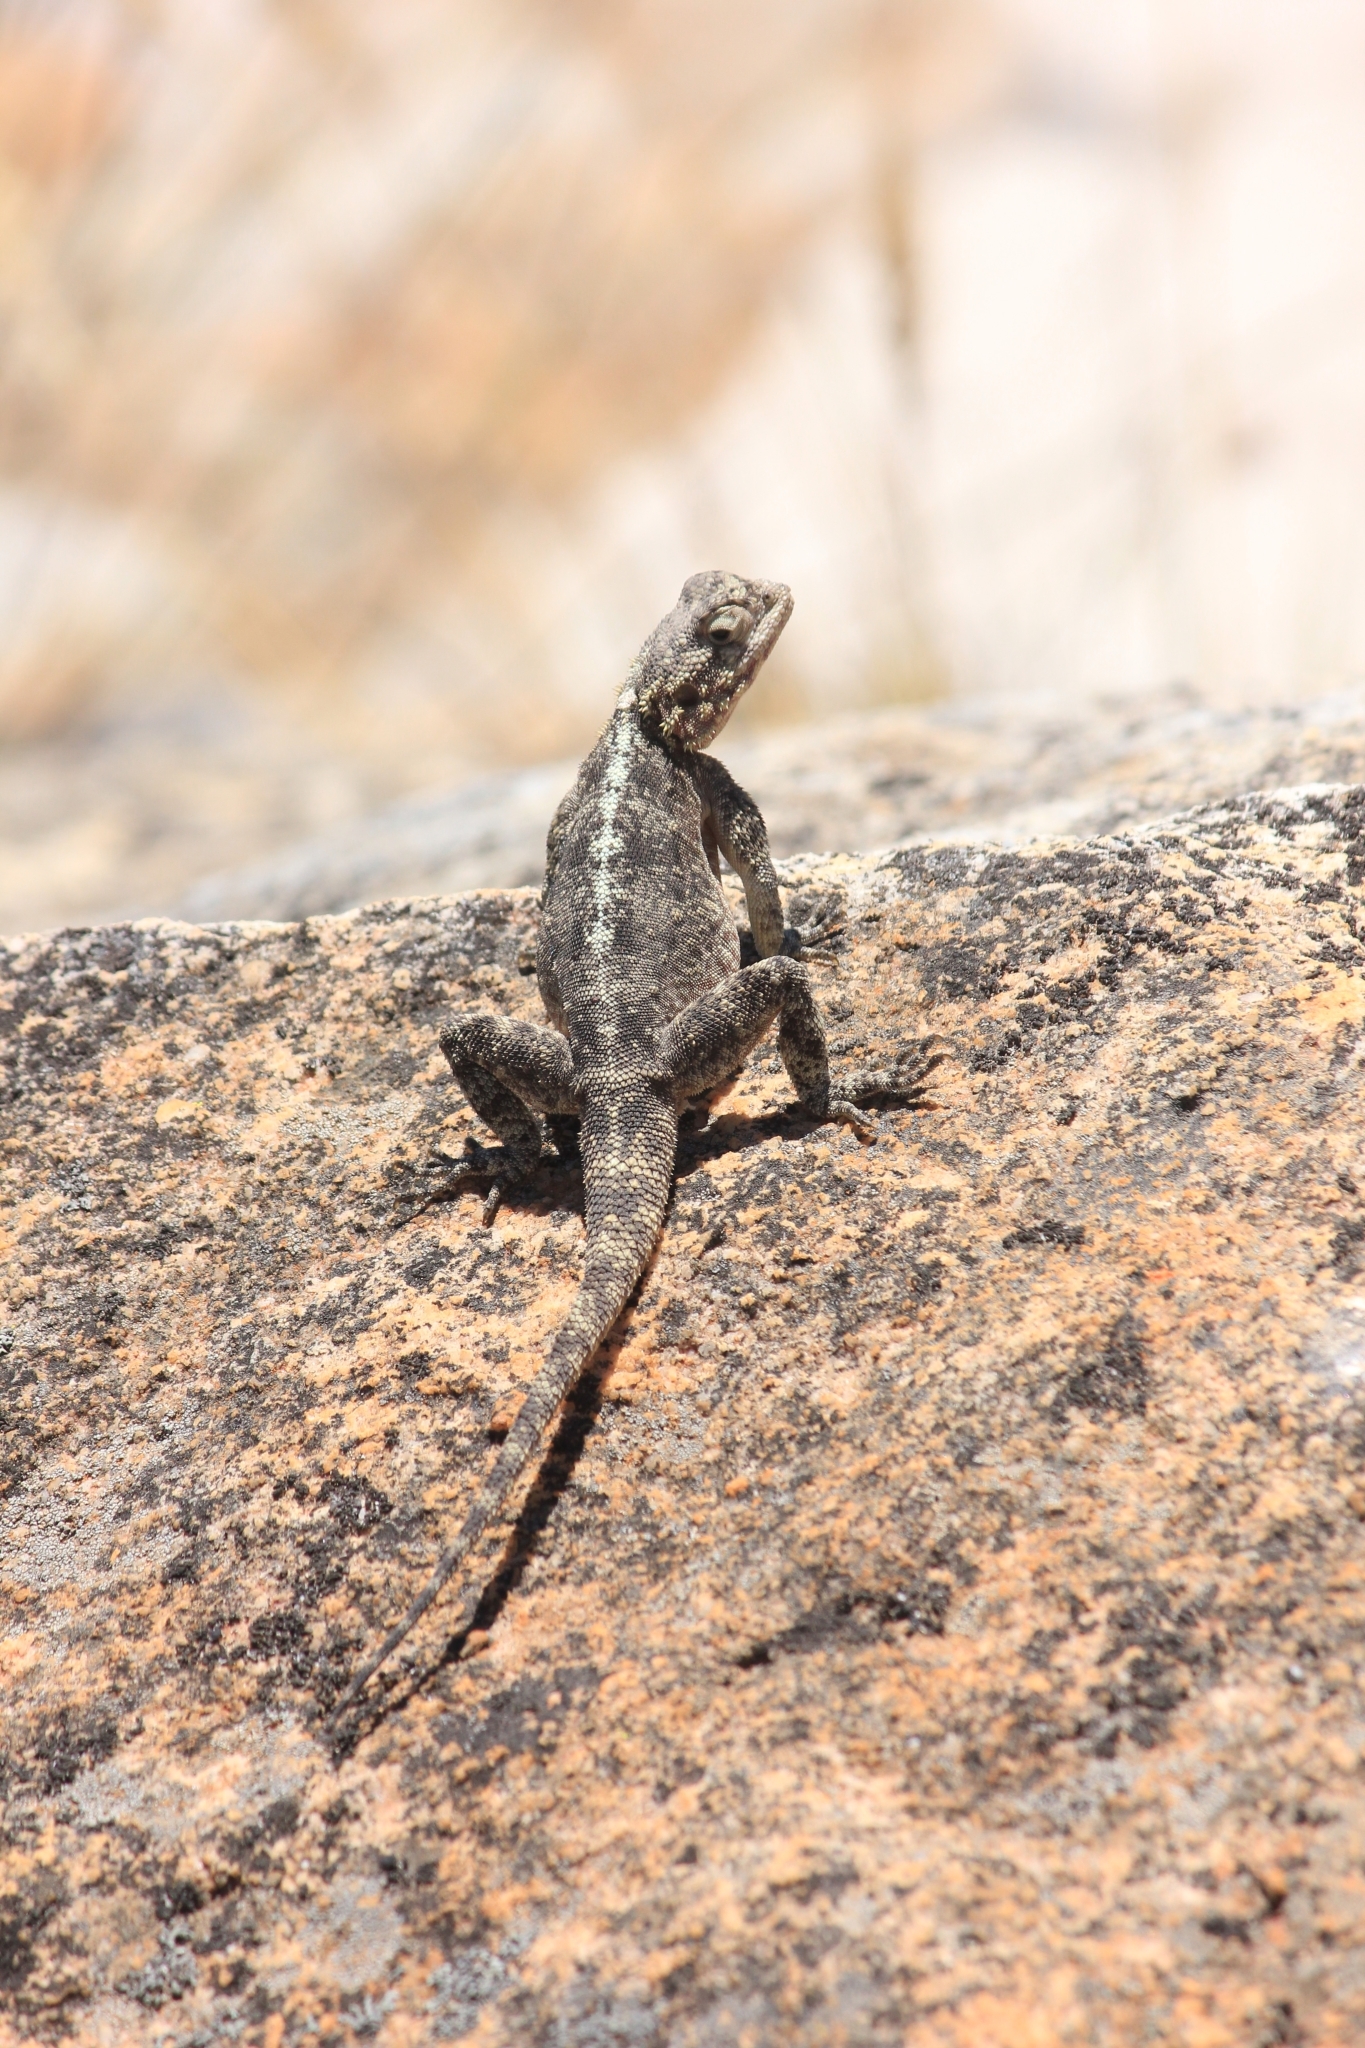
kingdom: Animalia
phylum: Chordata
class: Squamata
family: Agamidae
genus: Agama
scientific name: Agama atra
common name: Southern african rock agama
